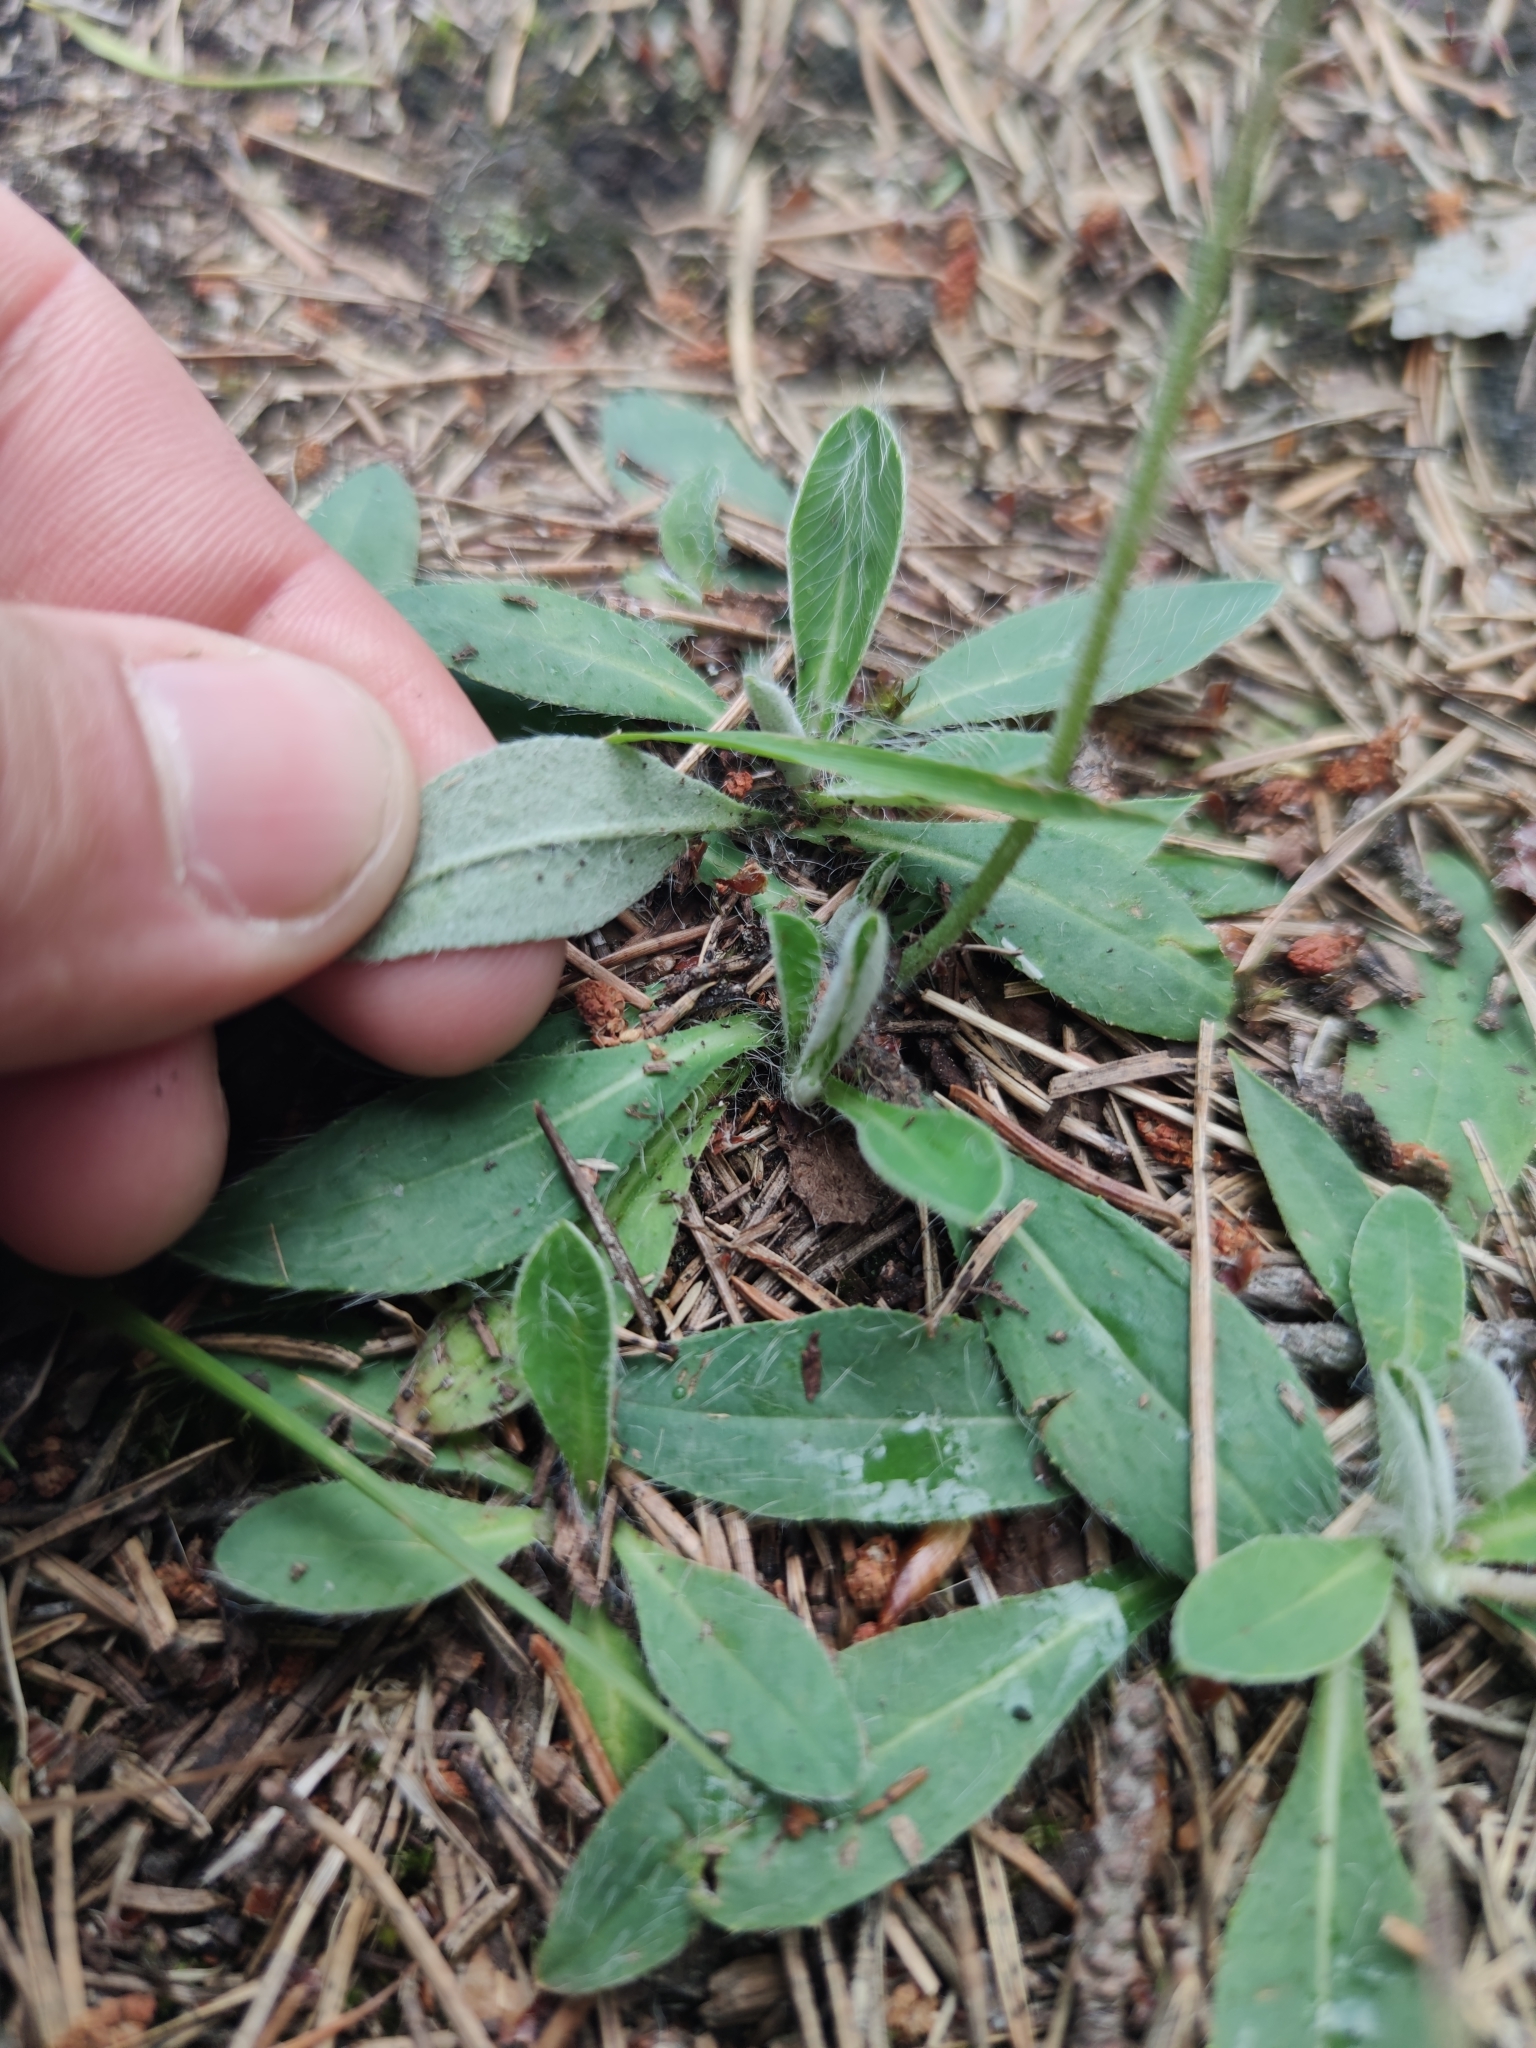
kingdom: Plantae
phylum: Tracheophyta
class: Magnoliopsida
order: Asterales
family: Asteraceae
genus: Pilosella
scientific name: Pilosella peleteriana
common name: Shaggy mouse-ear-hawkweed
